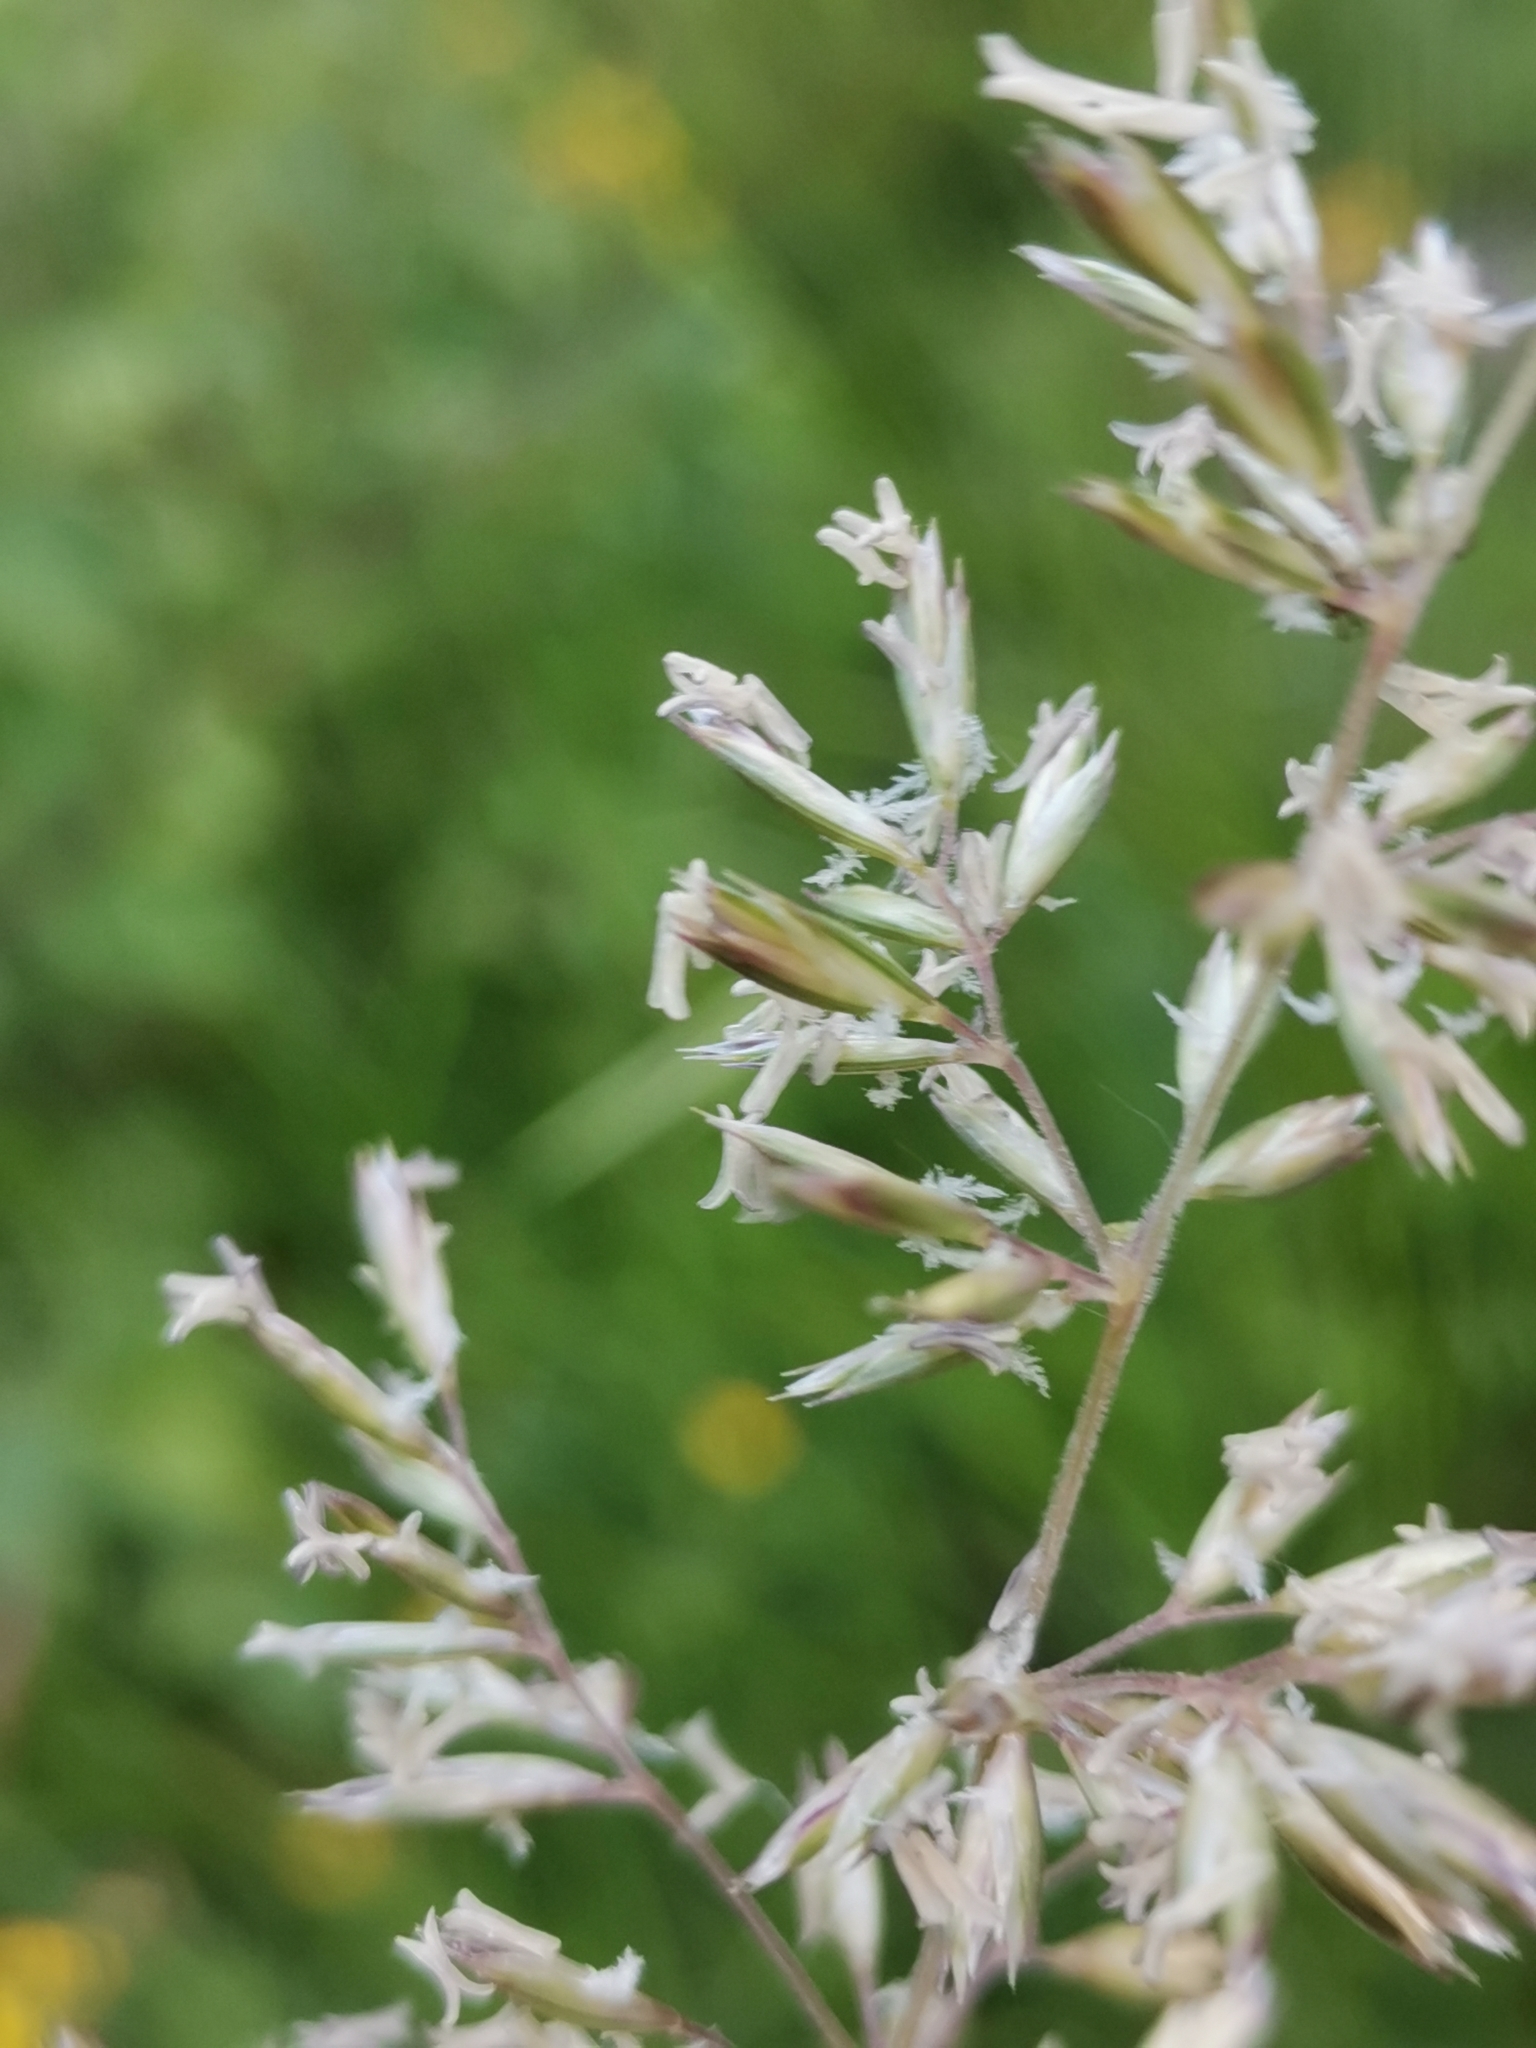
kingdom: Plantae
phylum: Tracheophyta
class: Liliopsida
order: Poales
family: Poaceae
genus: Koeleria
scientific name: Koeleria pyramidata
